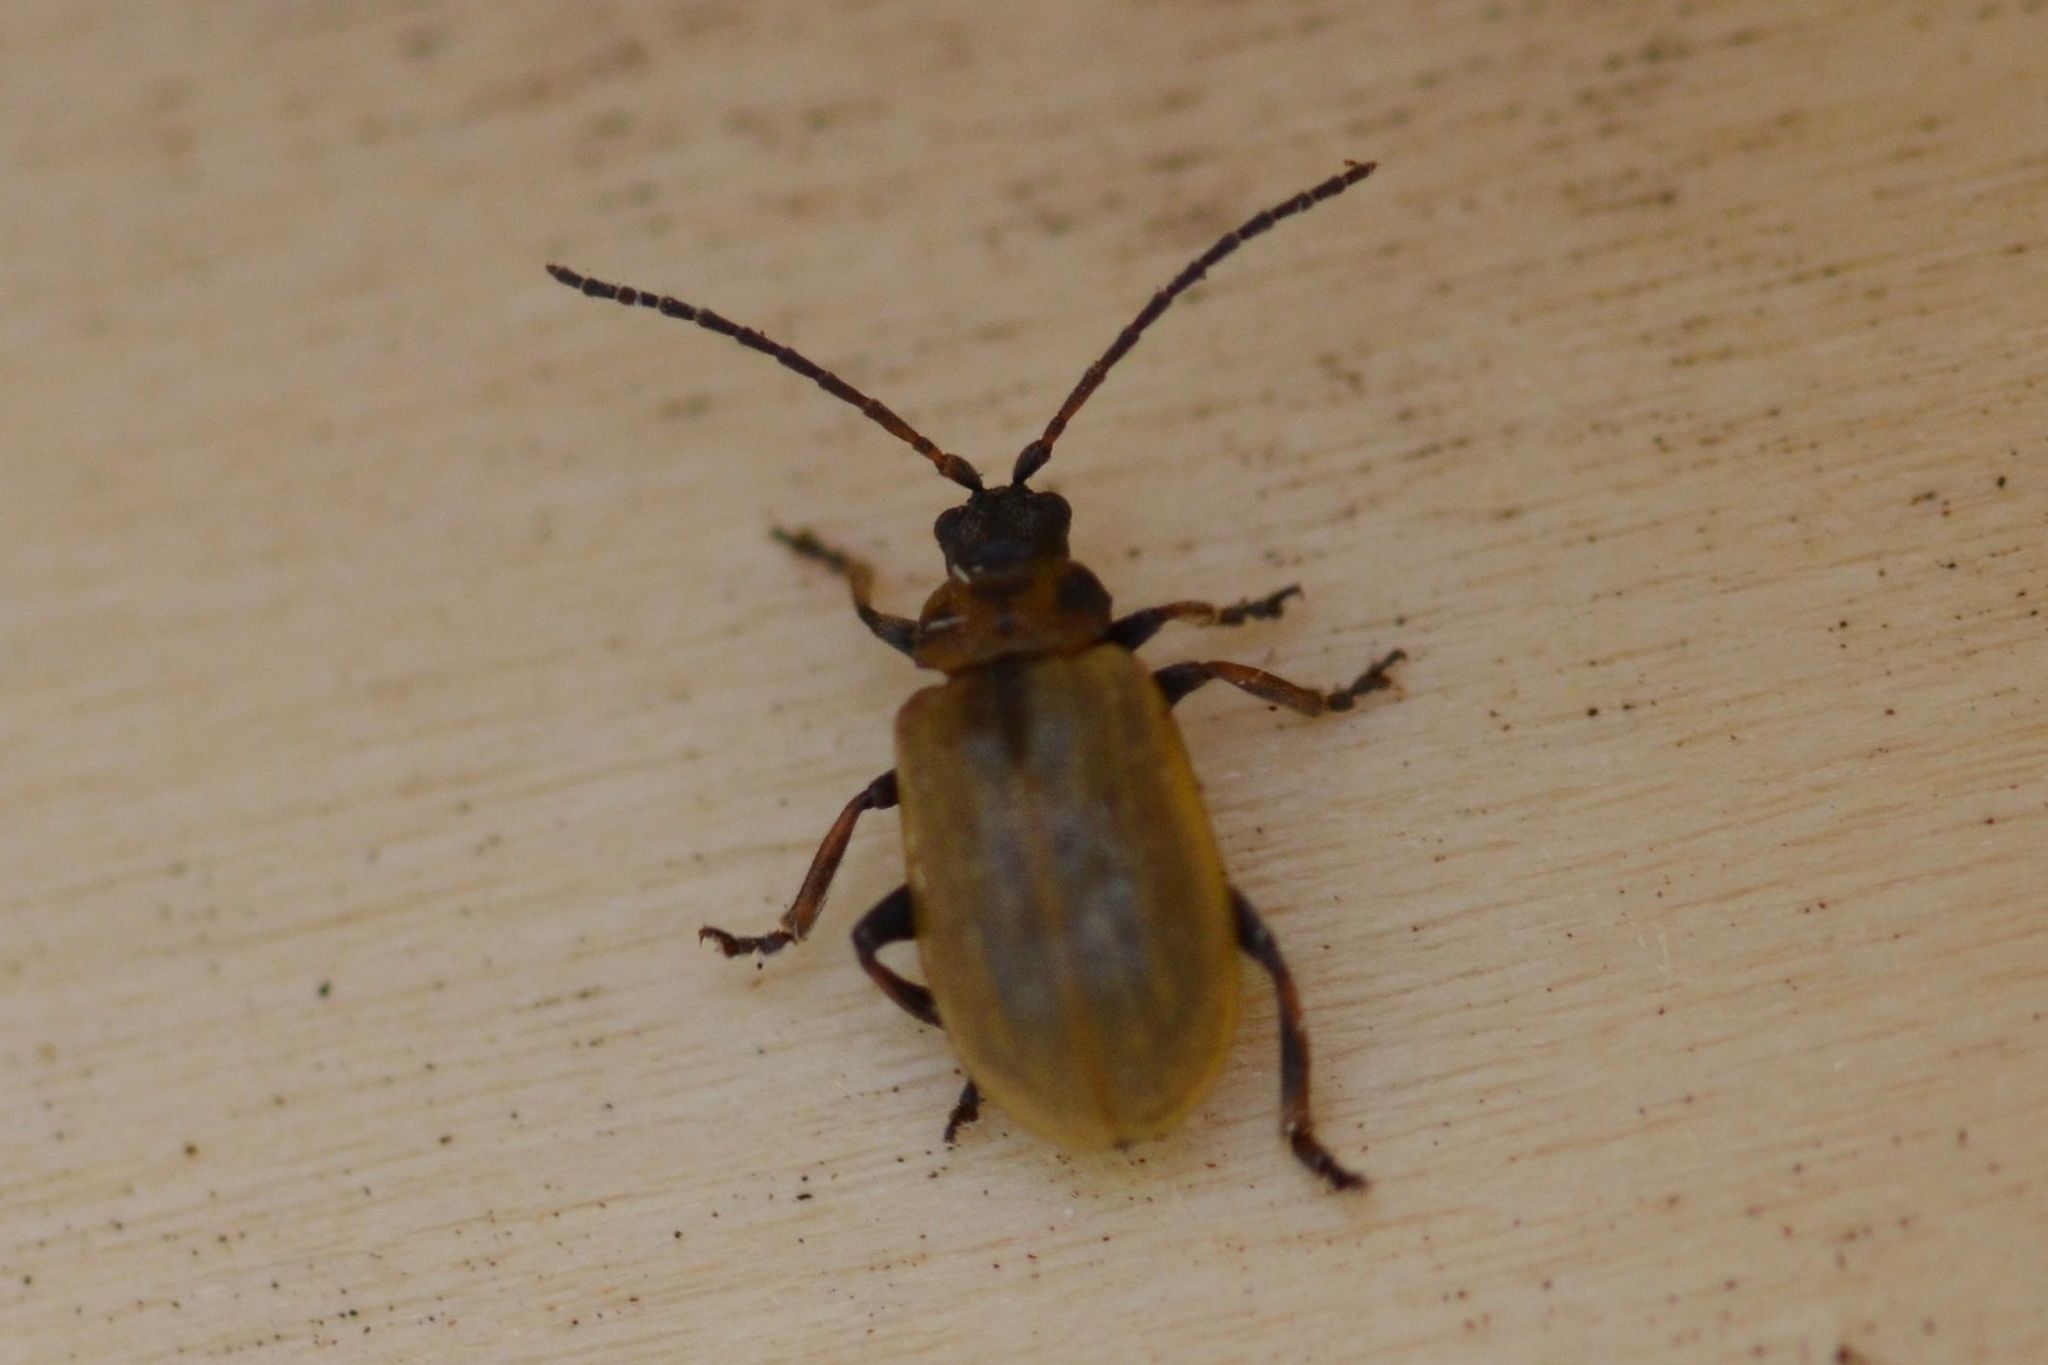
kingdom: Animalia
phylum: Arthropoda
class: Insecta
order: Coleoptera
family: Chrysomelidae
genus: Lochmaea
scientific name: Lochmaea caprea
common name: Willow leaf beetle
